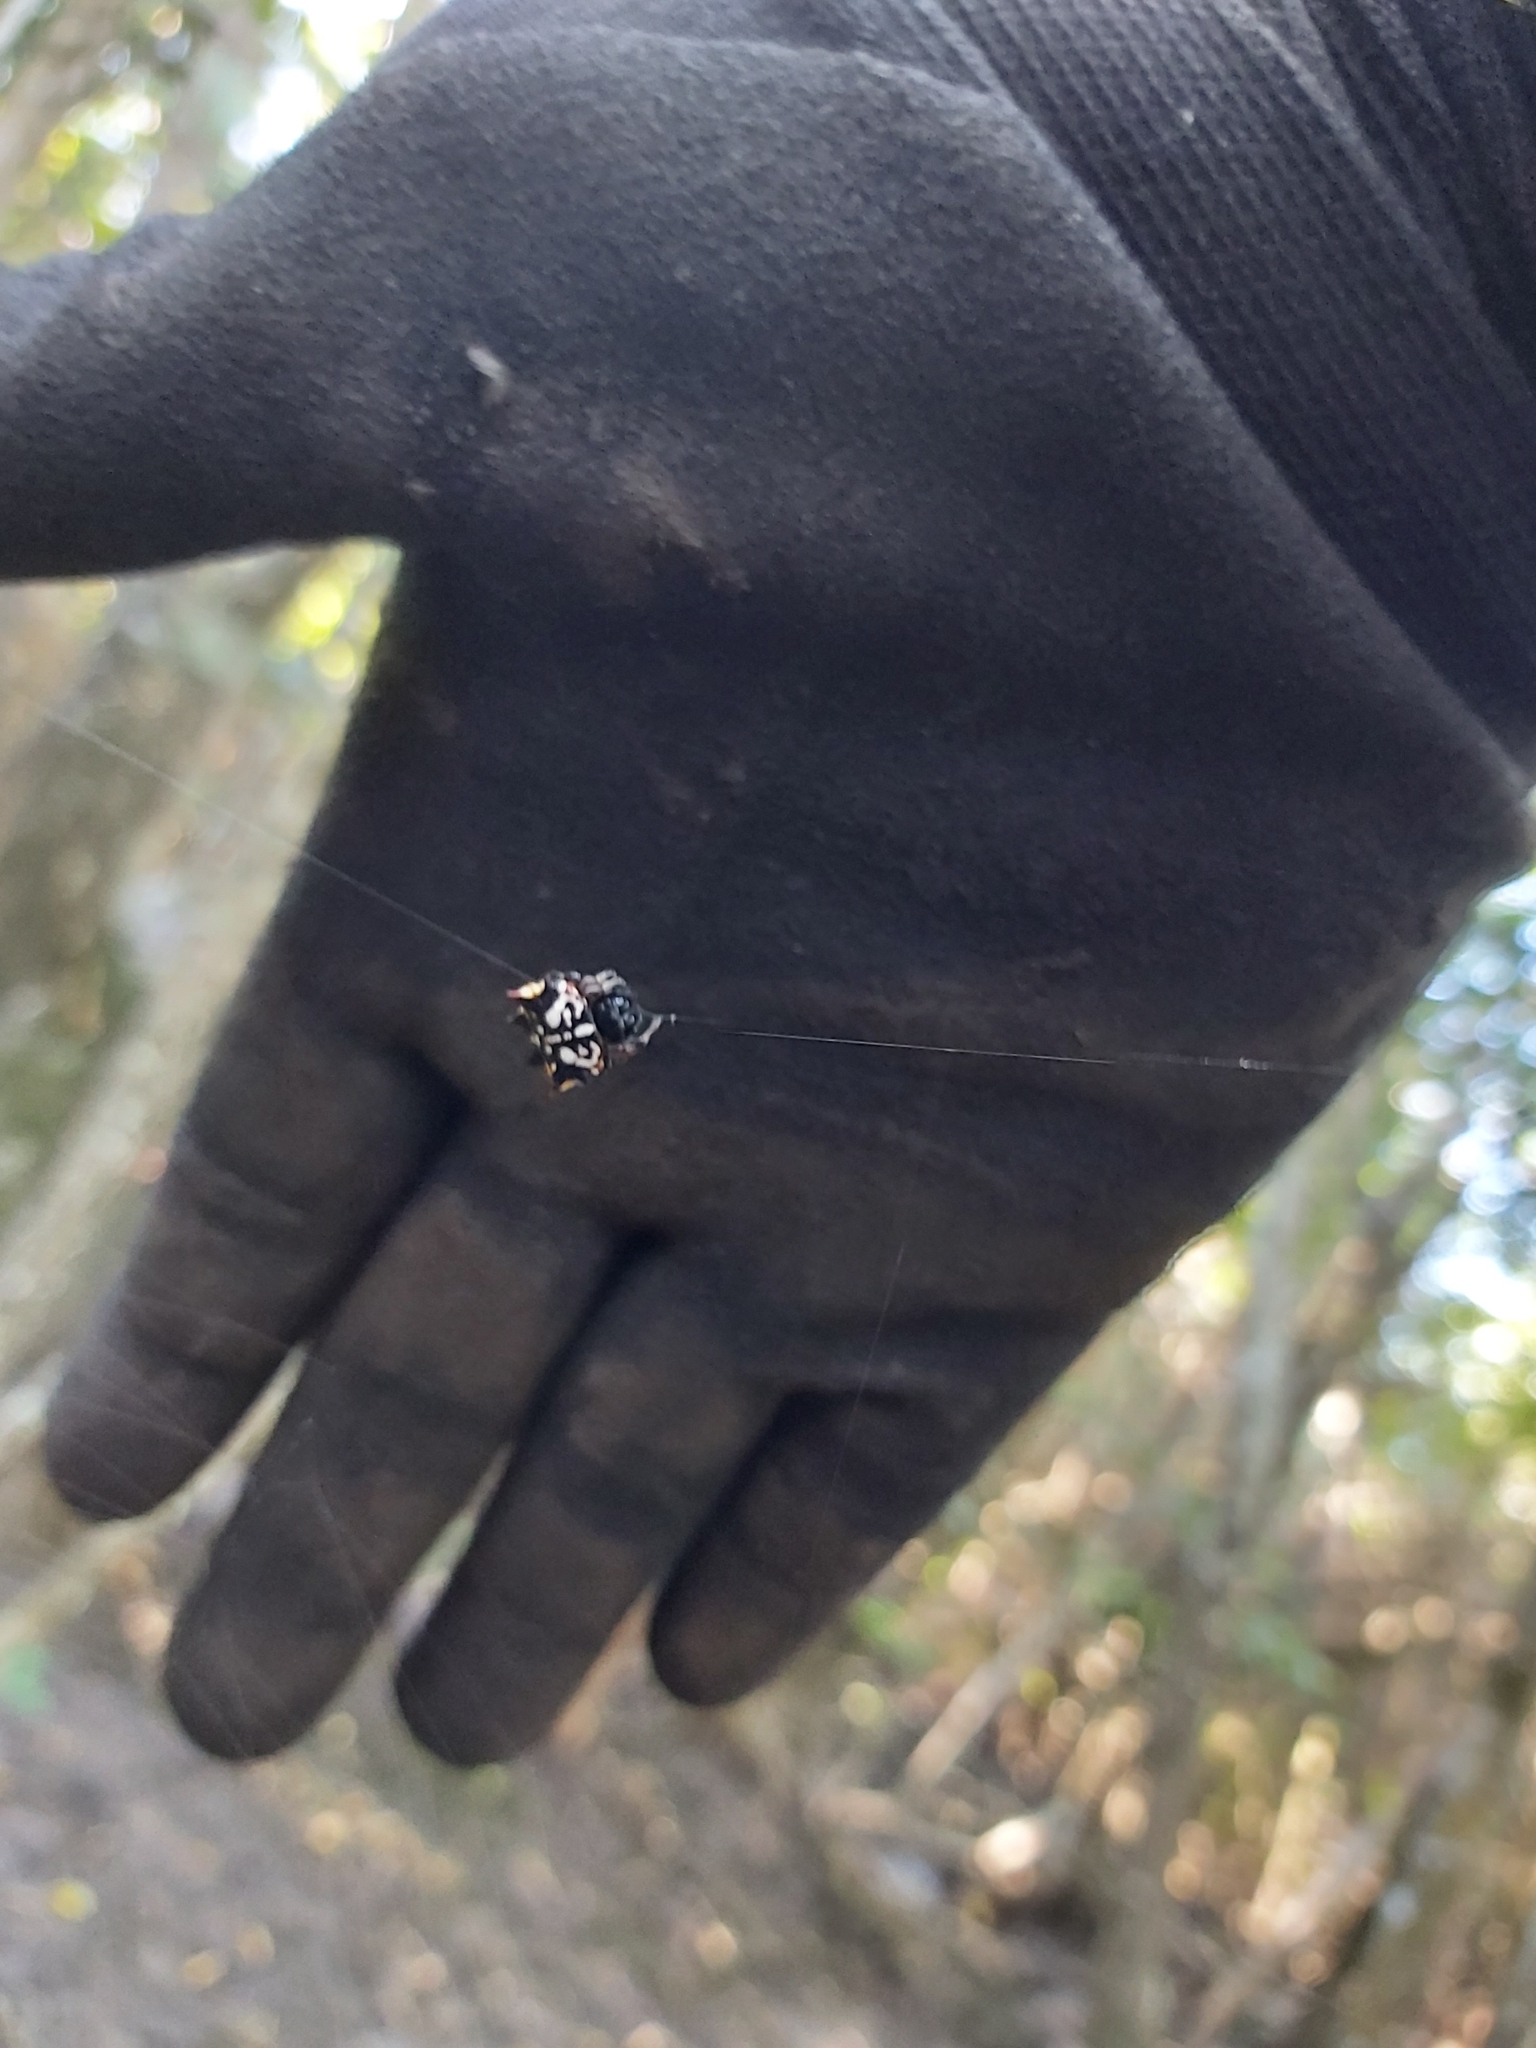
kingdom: Animalia
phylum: Arthropoda
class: Arachnida
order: Araneae
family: Araneidae
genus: Gasteracantha
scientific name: Gasteracantha sacerdotalis
